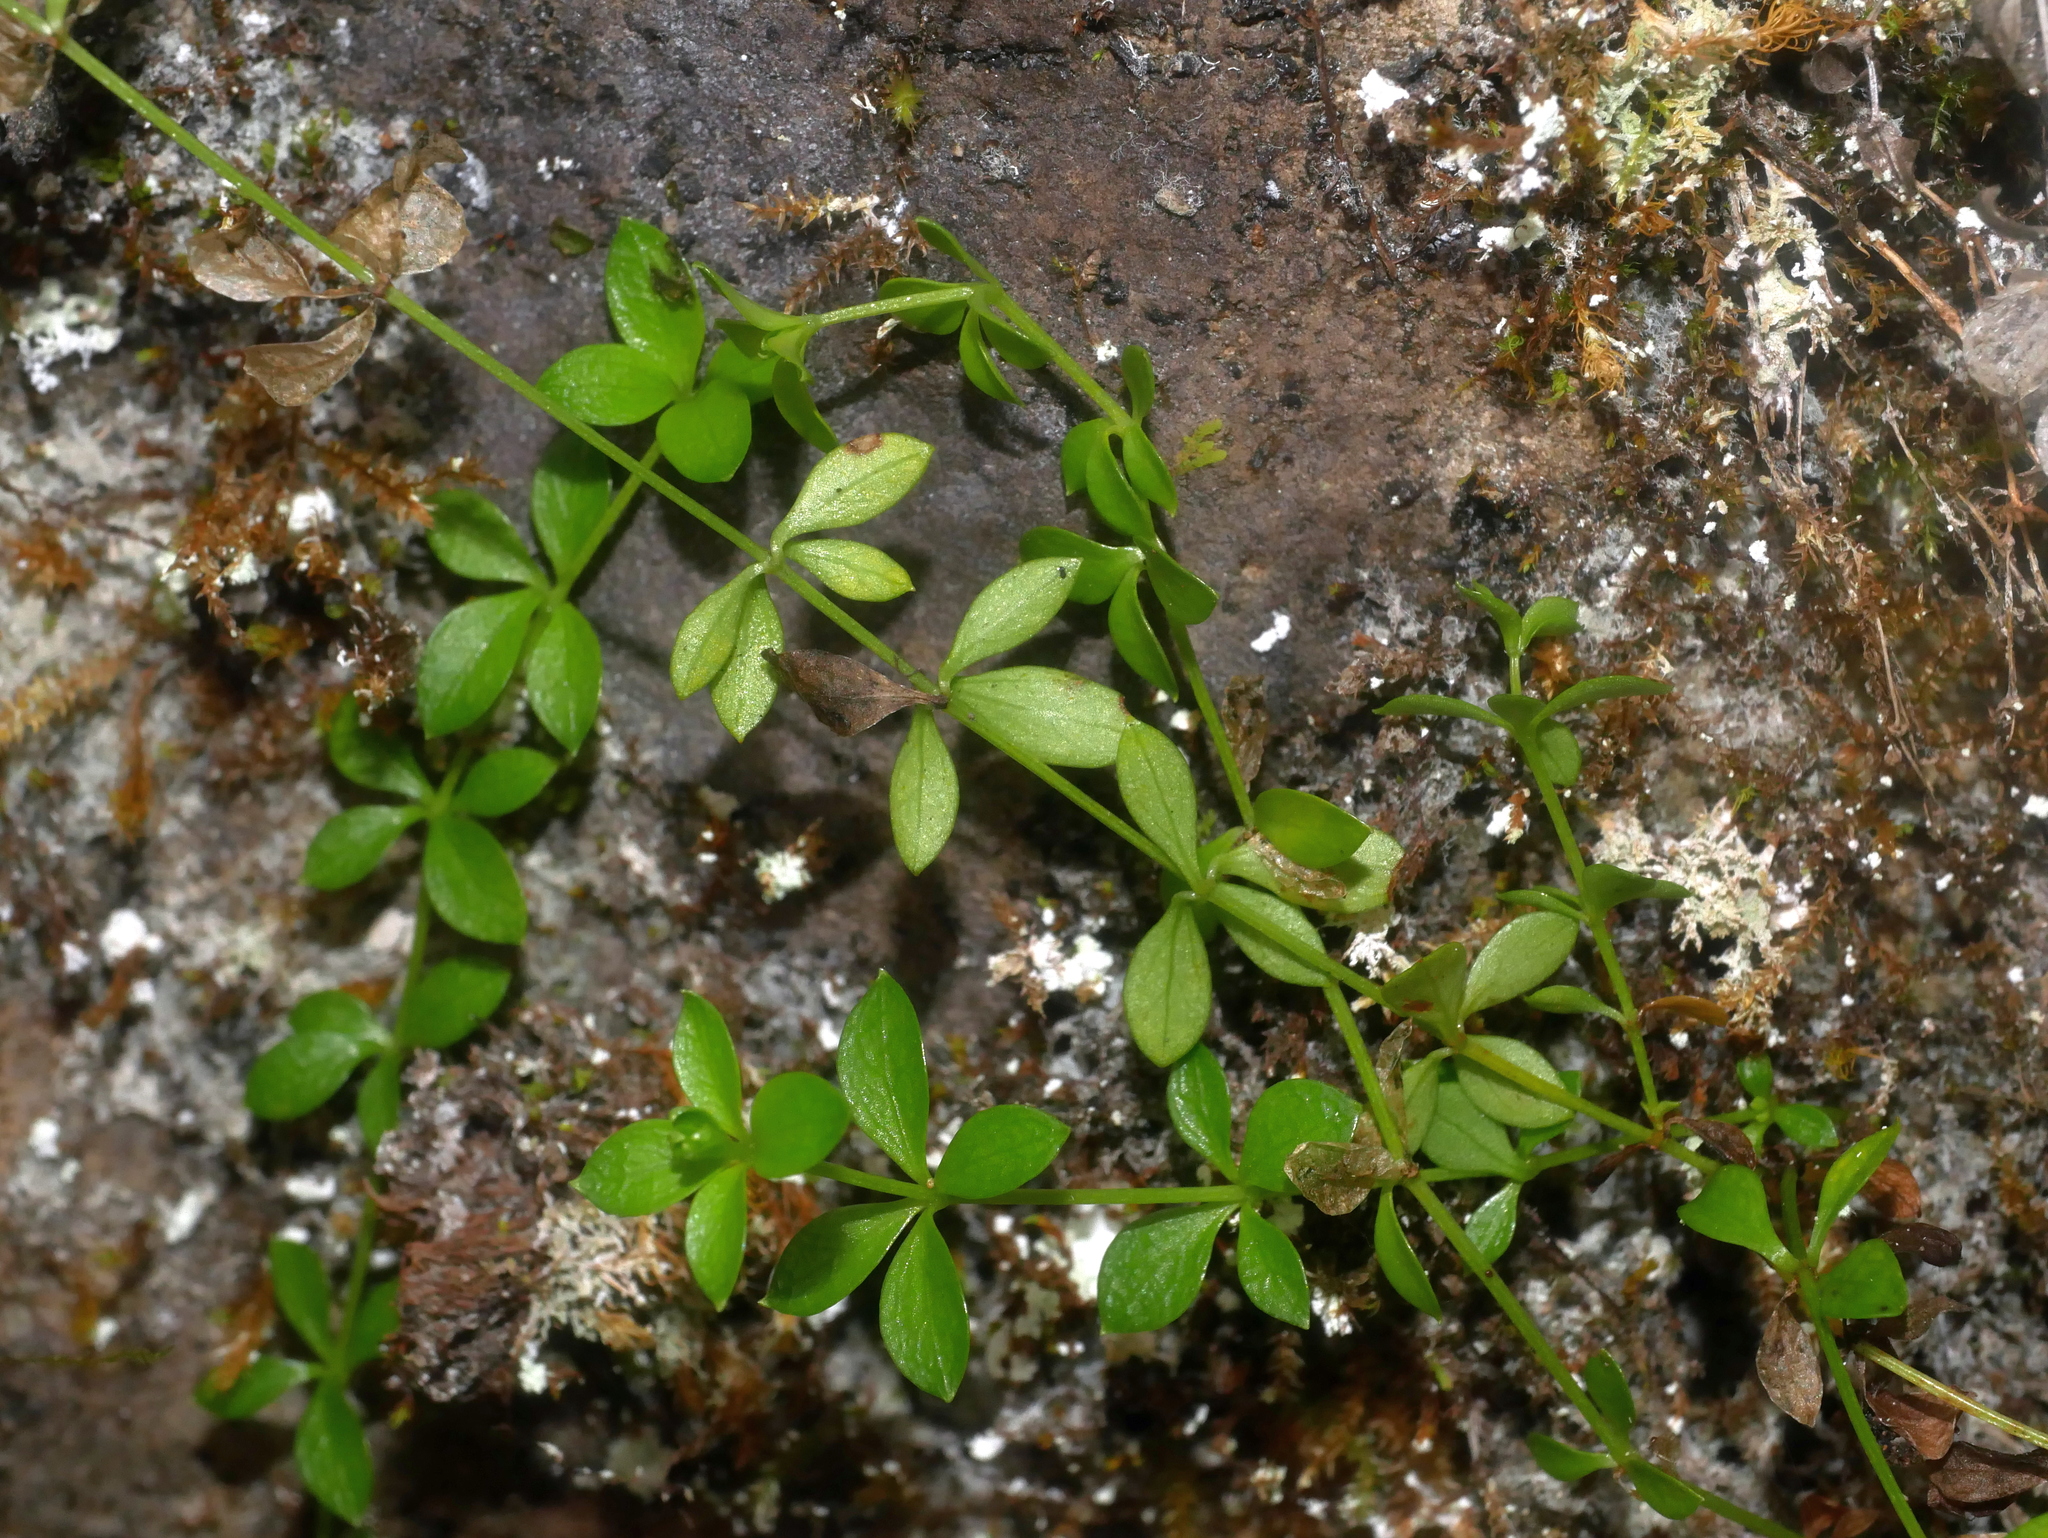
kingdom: Plantae
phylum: Tracheophyta
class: Magnoliopsida
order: Gentianales
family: Rubiaceae
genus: Galium
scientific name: Galium formosense
